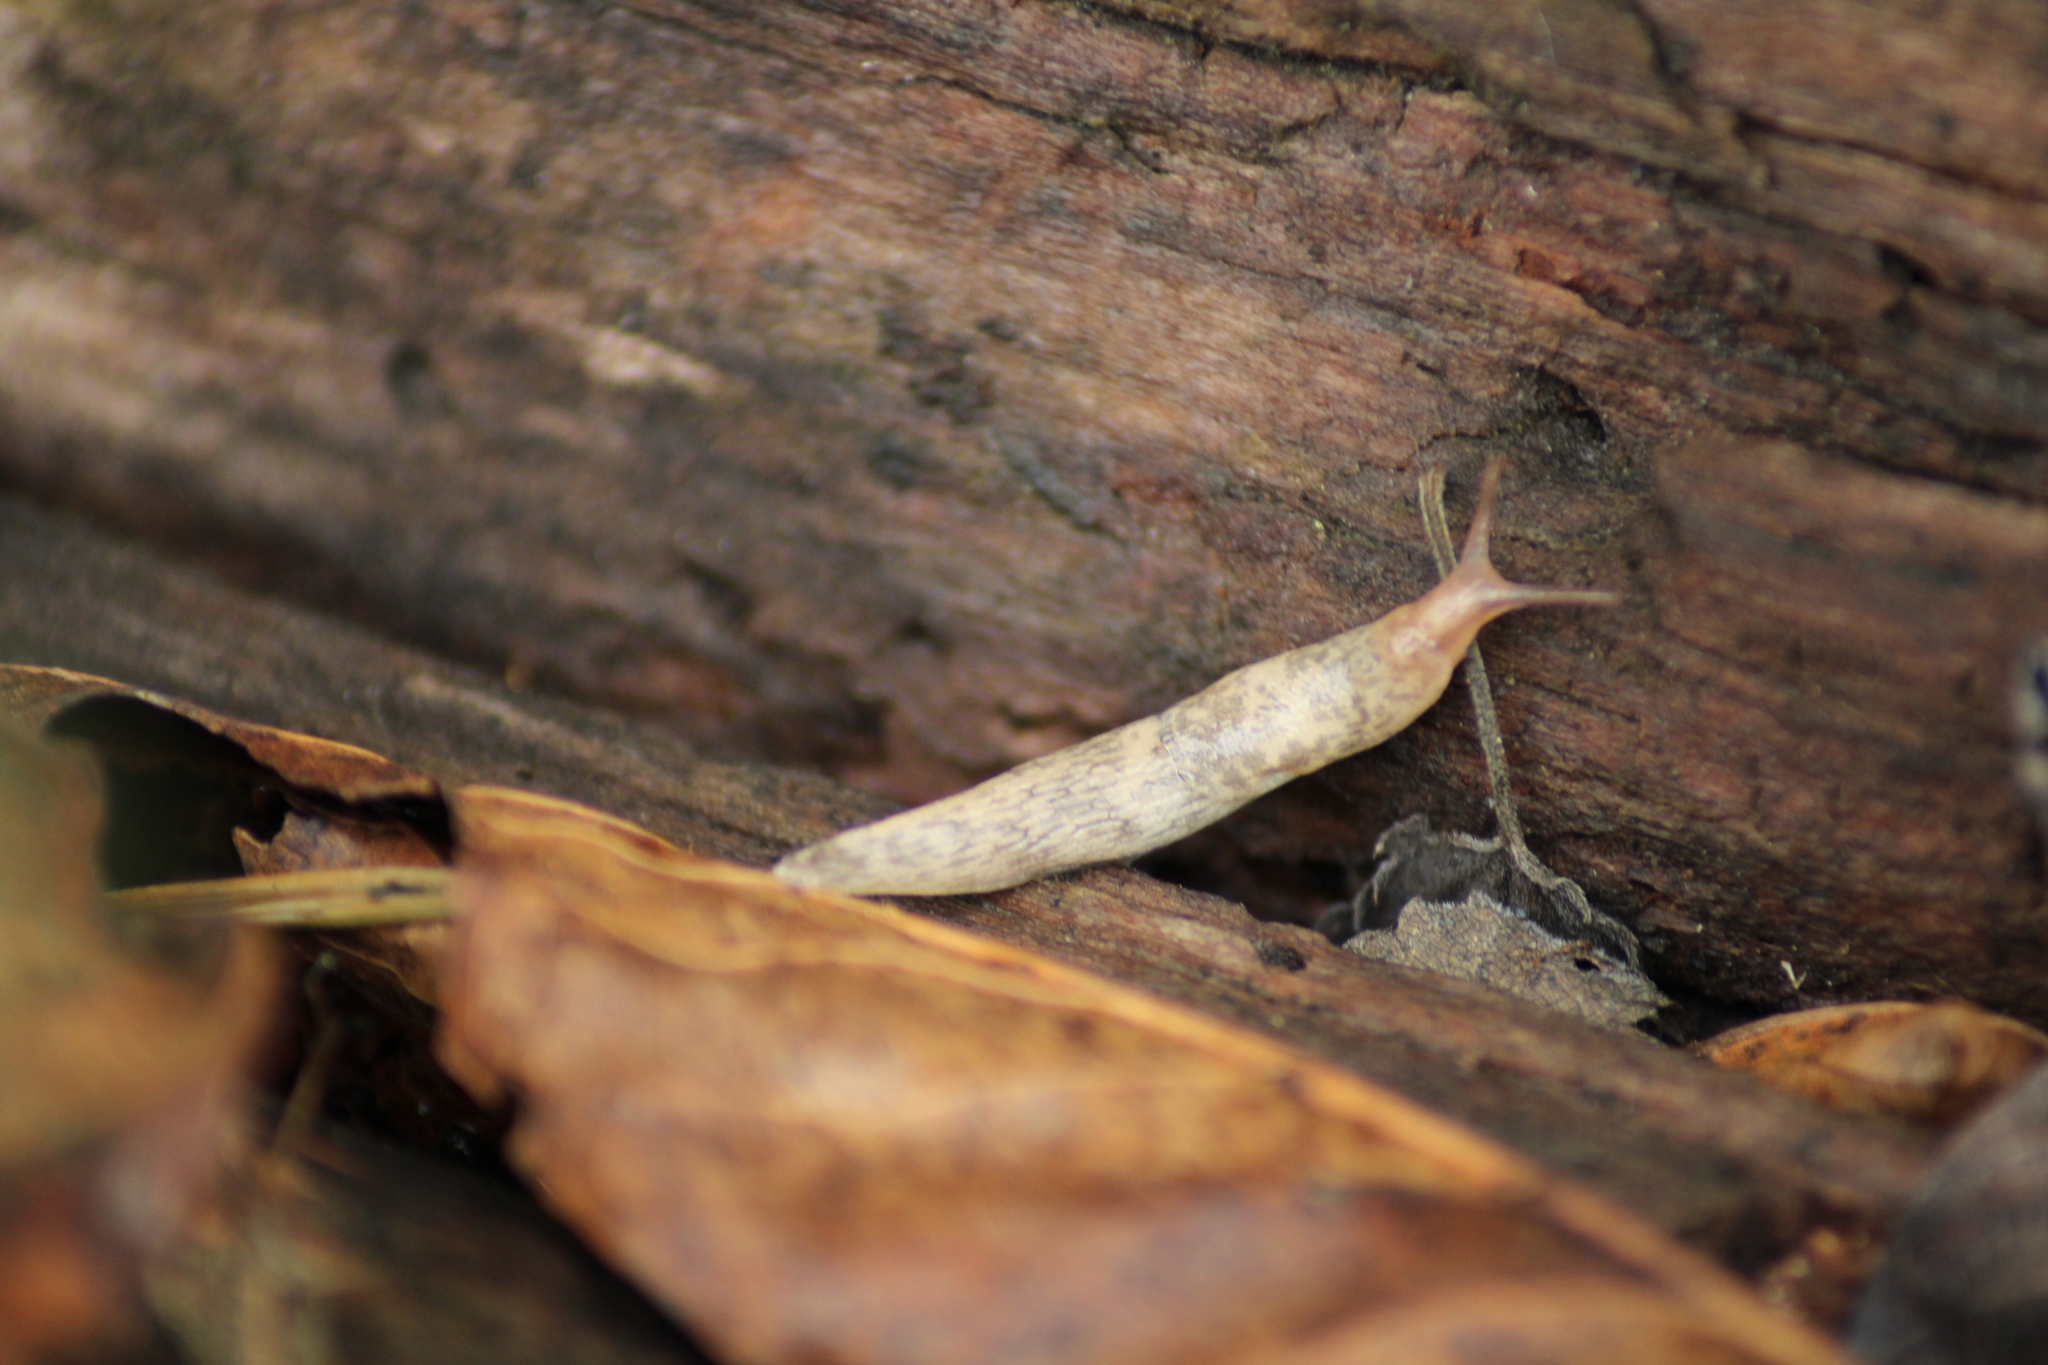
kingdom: Animalia
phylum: Mollusca
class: Gastropoda
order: Stylommatophora
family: Agriolimacidae
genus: Deroceras
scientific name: Deroceras reticulatum
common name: Gray field slug
